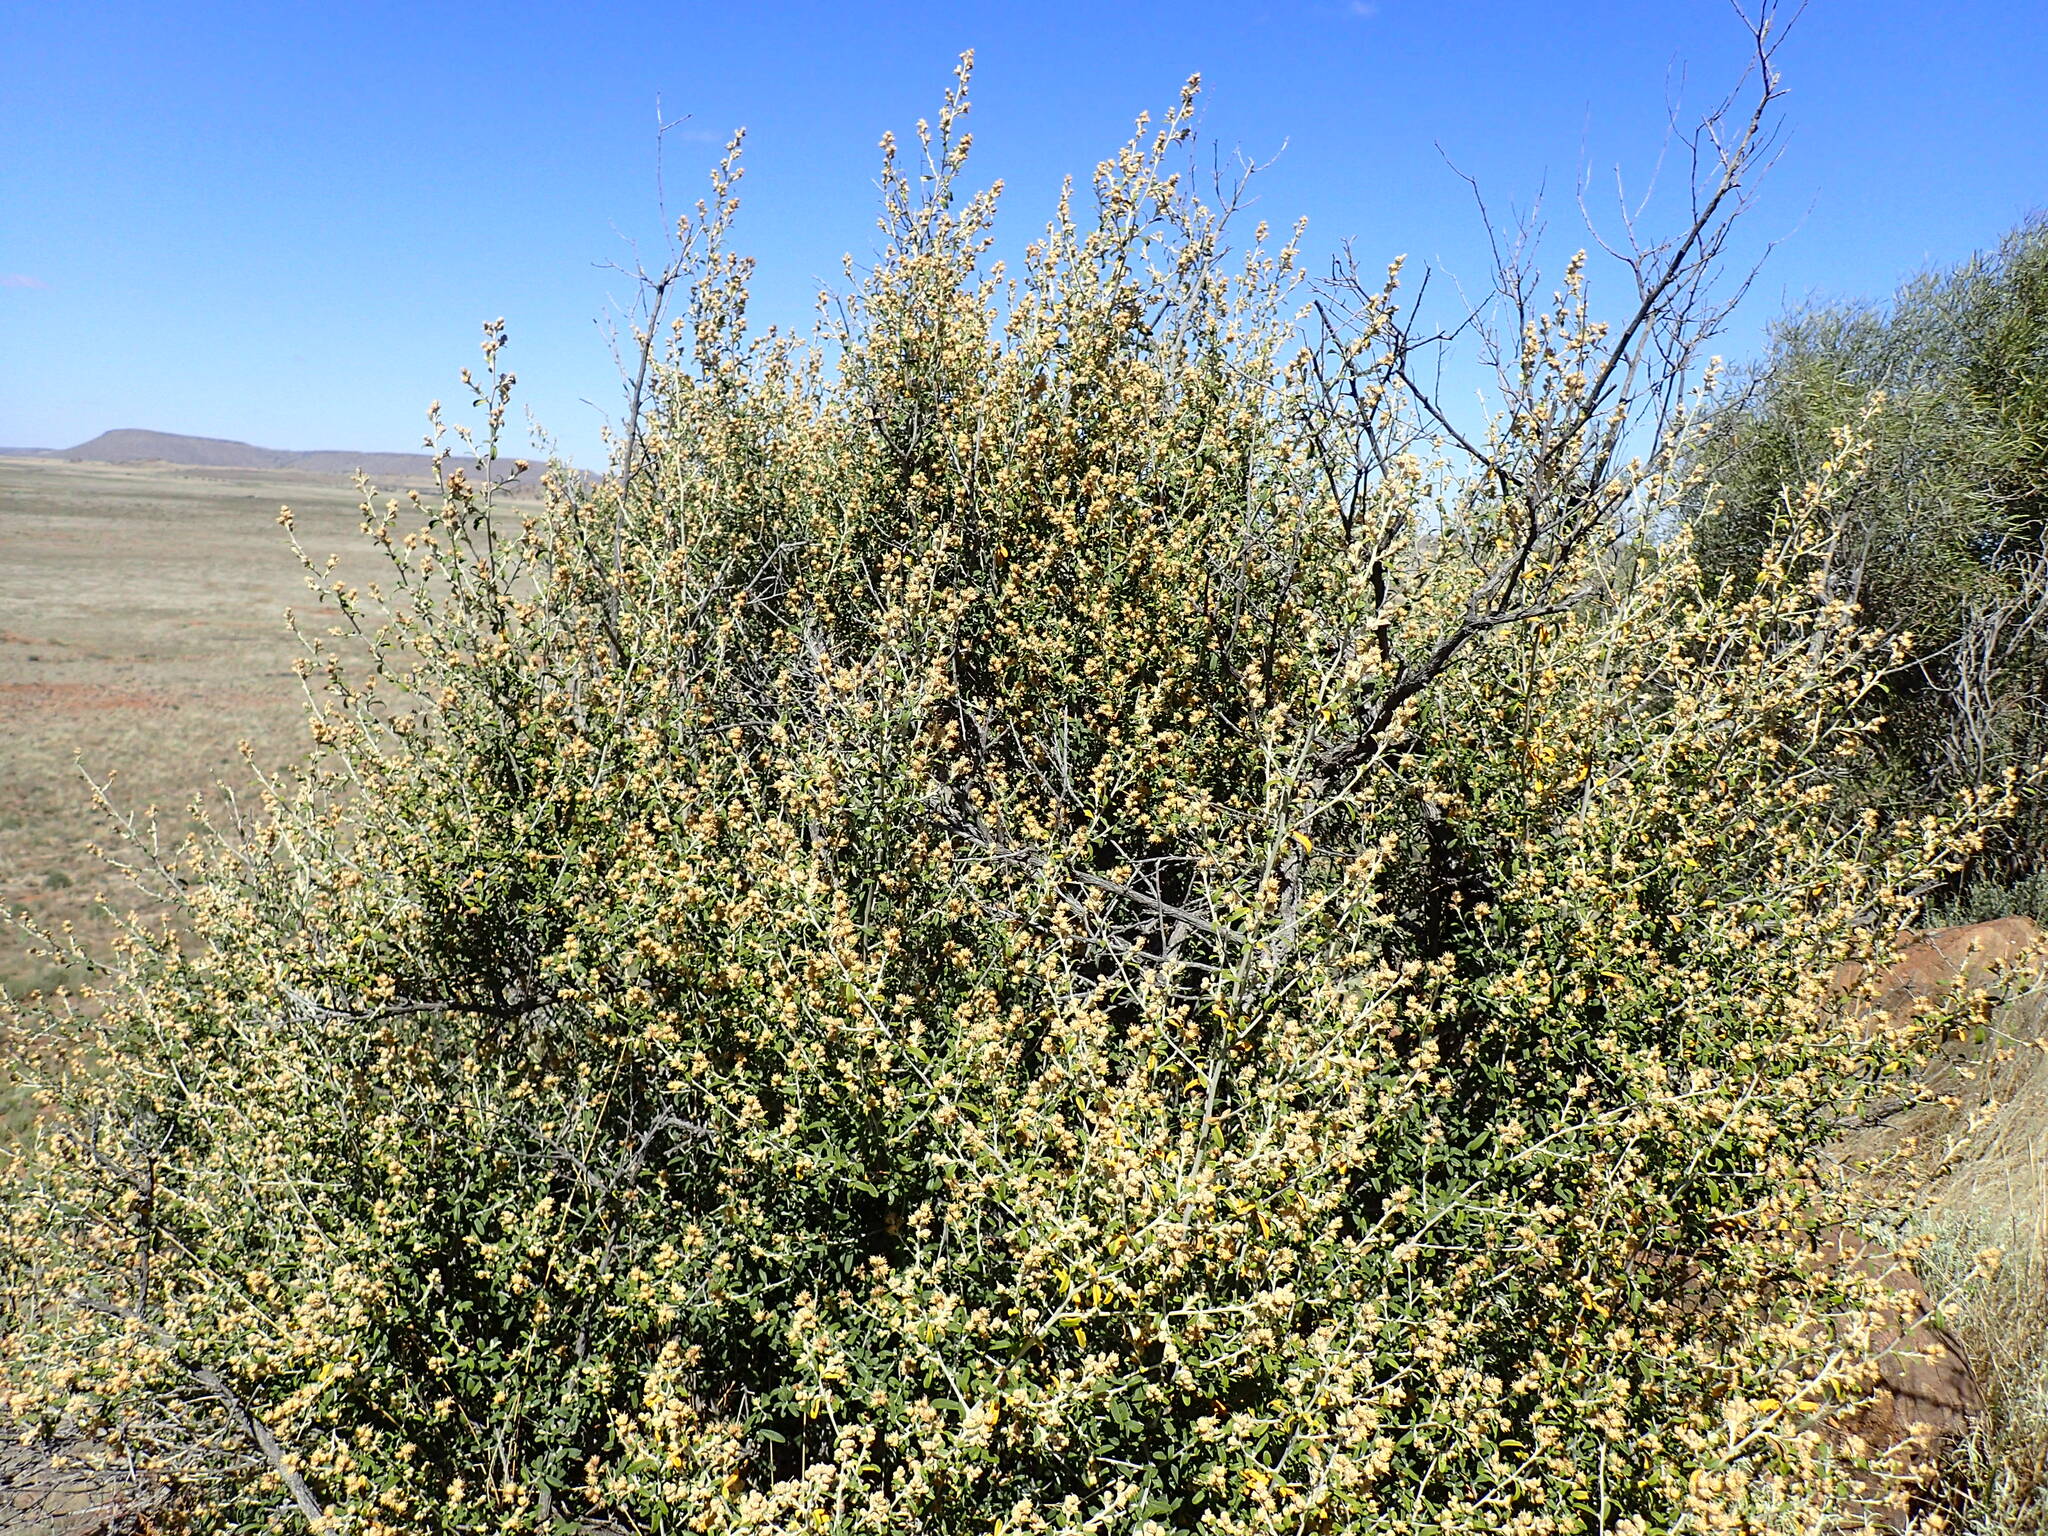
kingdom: Plantae
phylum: Tracheophyta
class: Magnoliopsida
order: Asterales
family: Asteraceae
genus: Tarchonanthus
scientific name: Tarchonanthus minor
